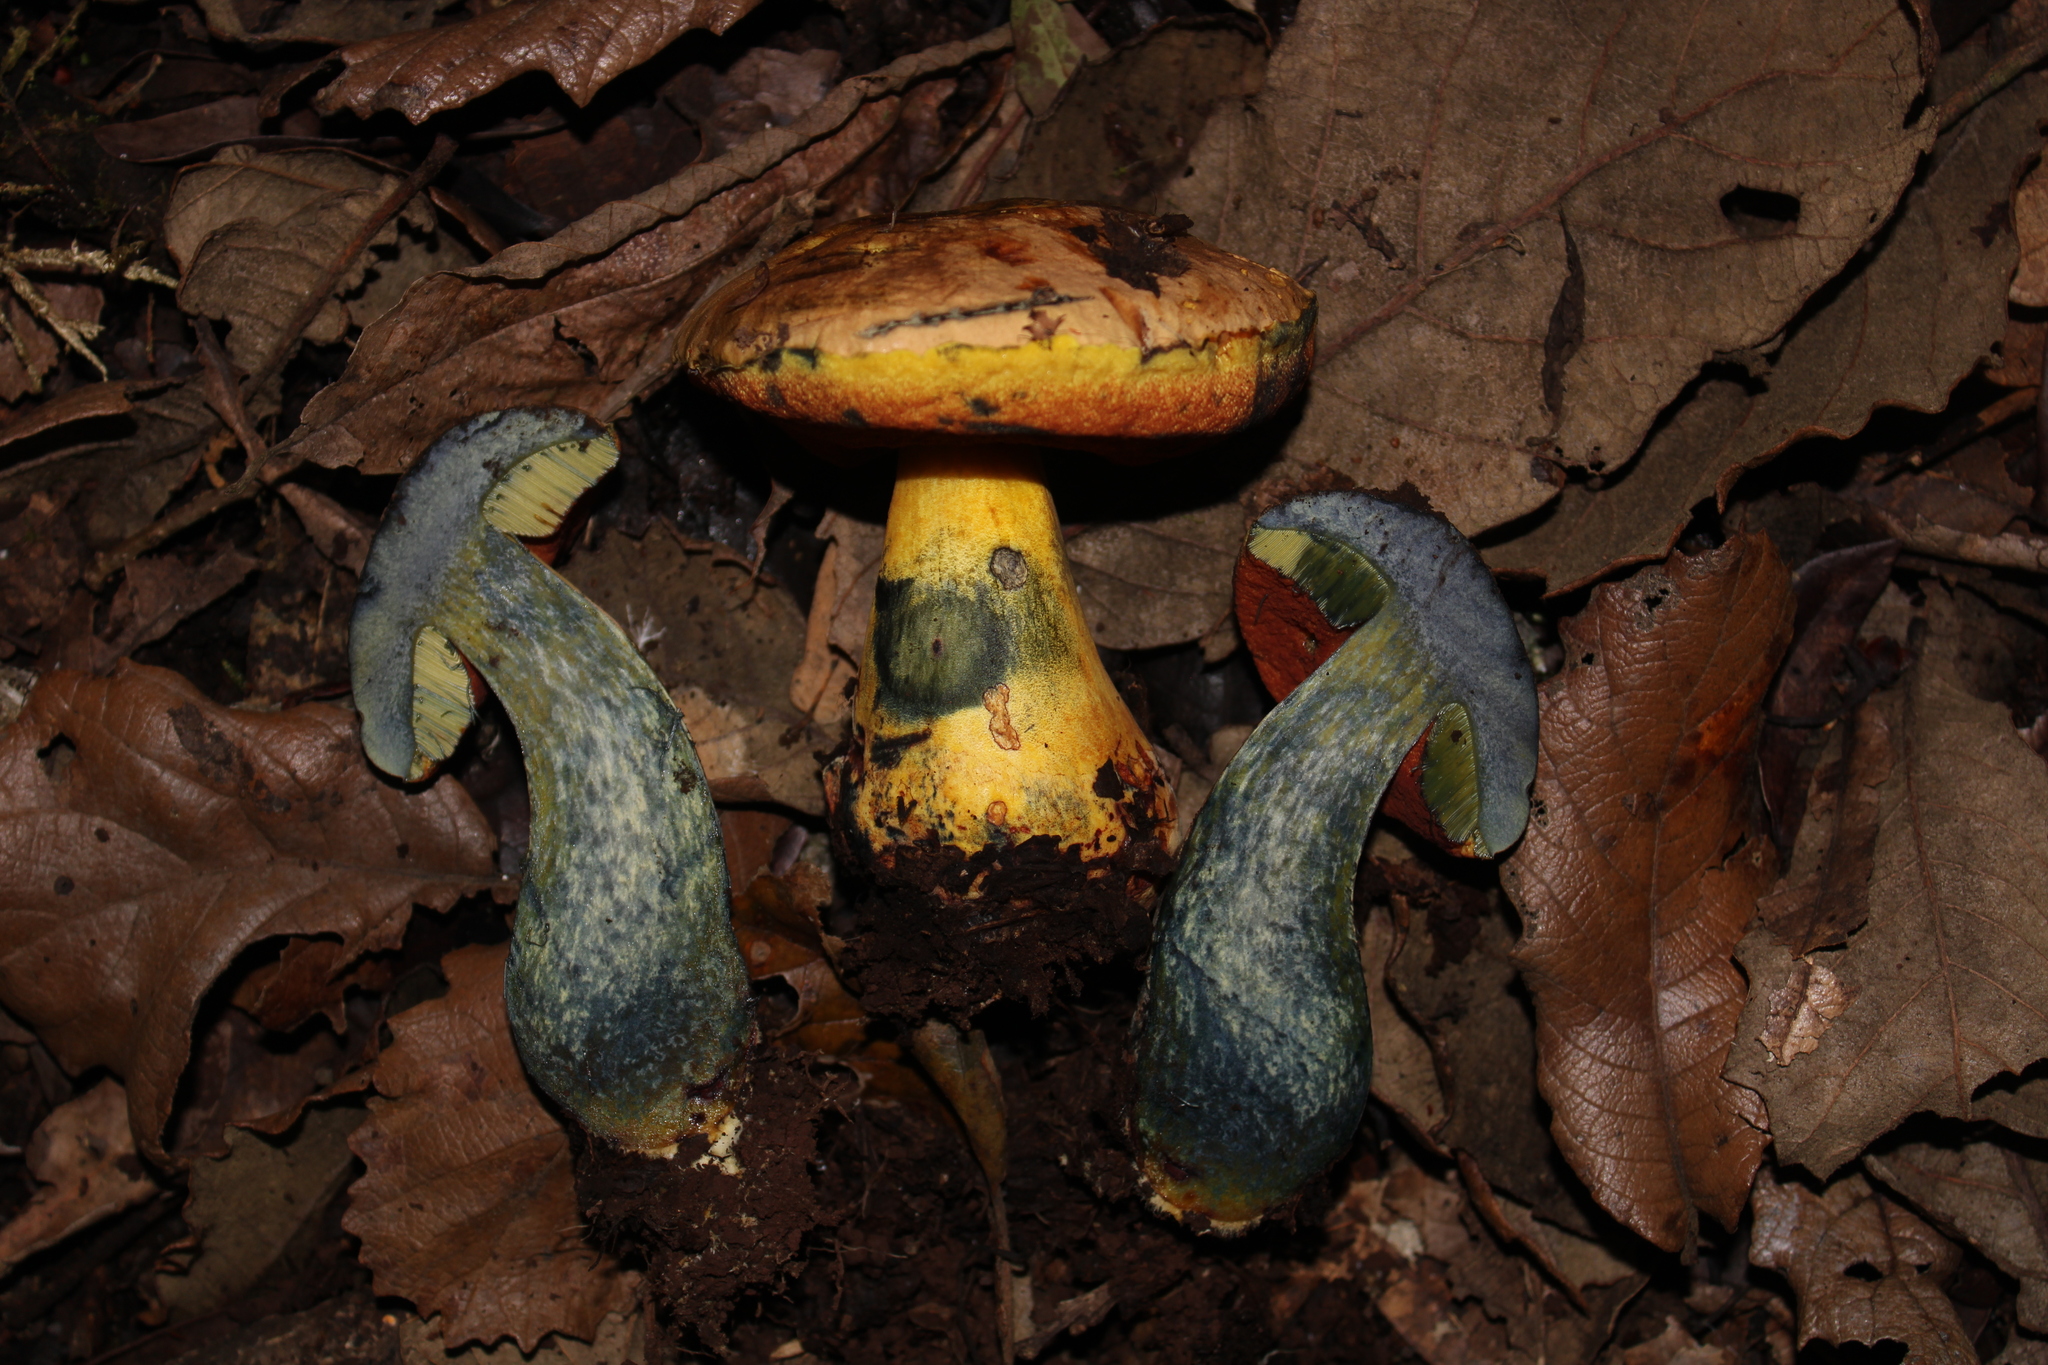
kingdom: Fungi
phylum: Basidiomycota
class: Agaricomycetes
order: Boletales
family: Boletaceae
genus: Boletus
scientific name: Boletus subvelutipes
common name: Red-mouth bolete
